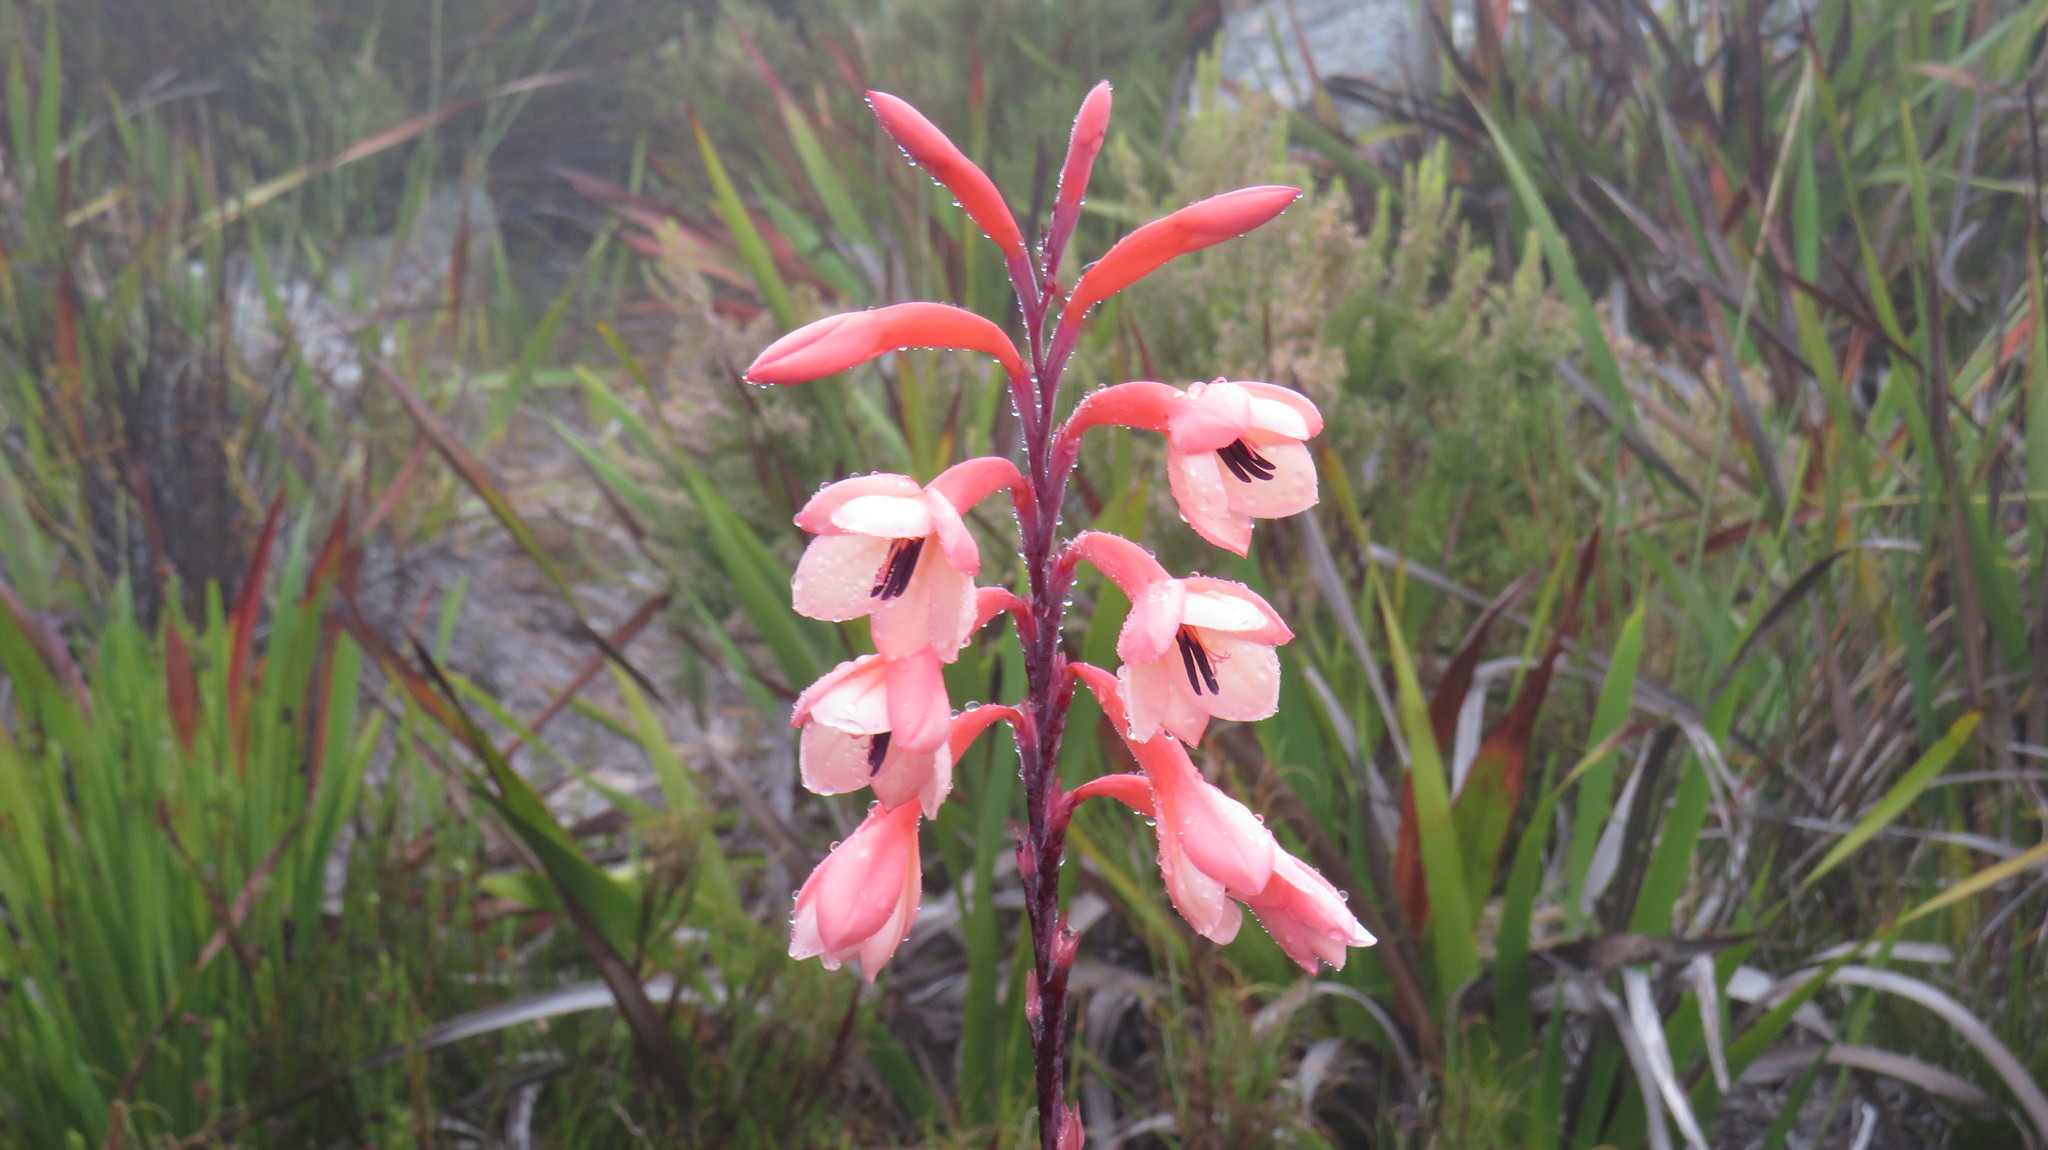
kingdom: Plantae
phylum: Tracheophyta
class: Liliopsida
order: Asparagales
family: Iridaceae
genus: Watsonia
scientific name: Watsonia tabularis
